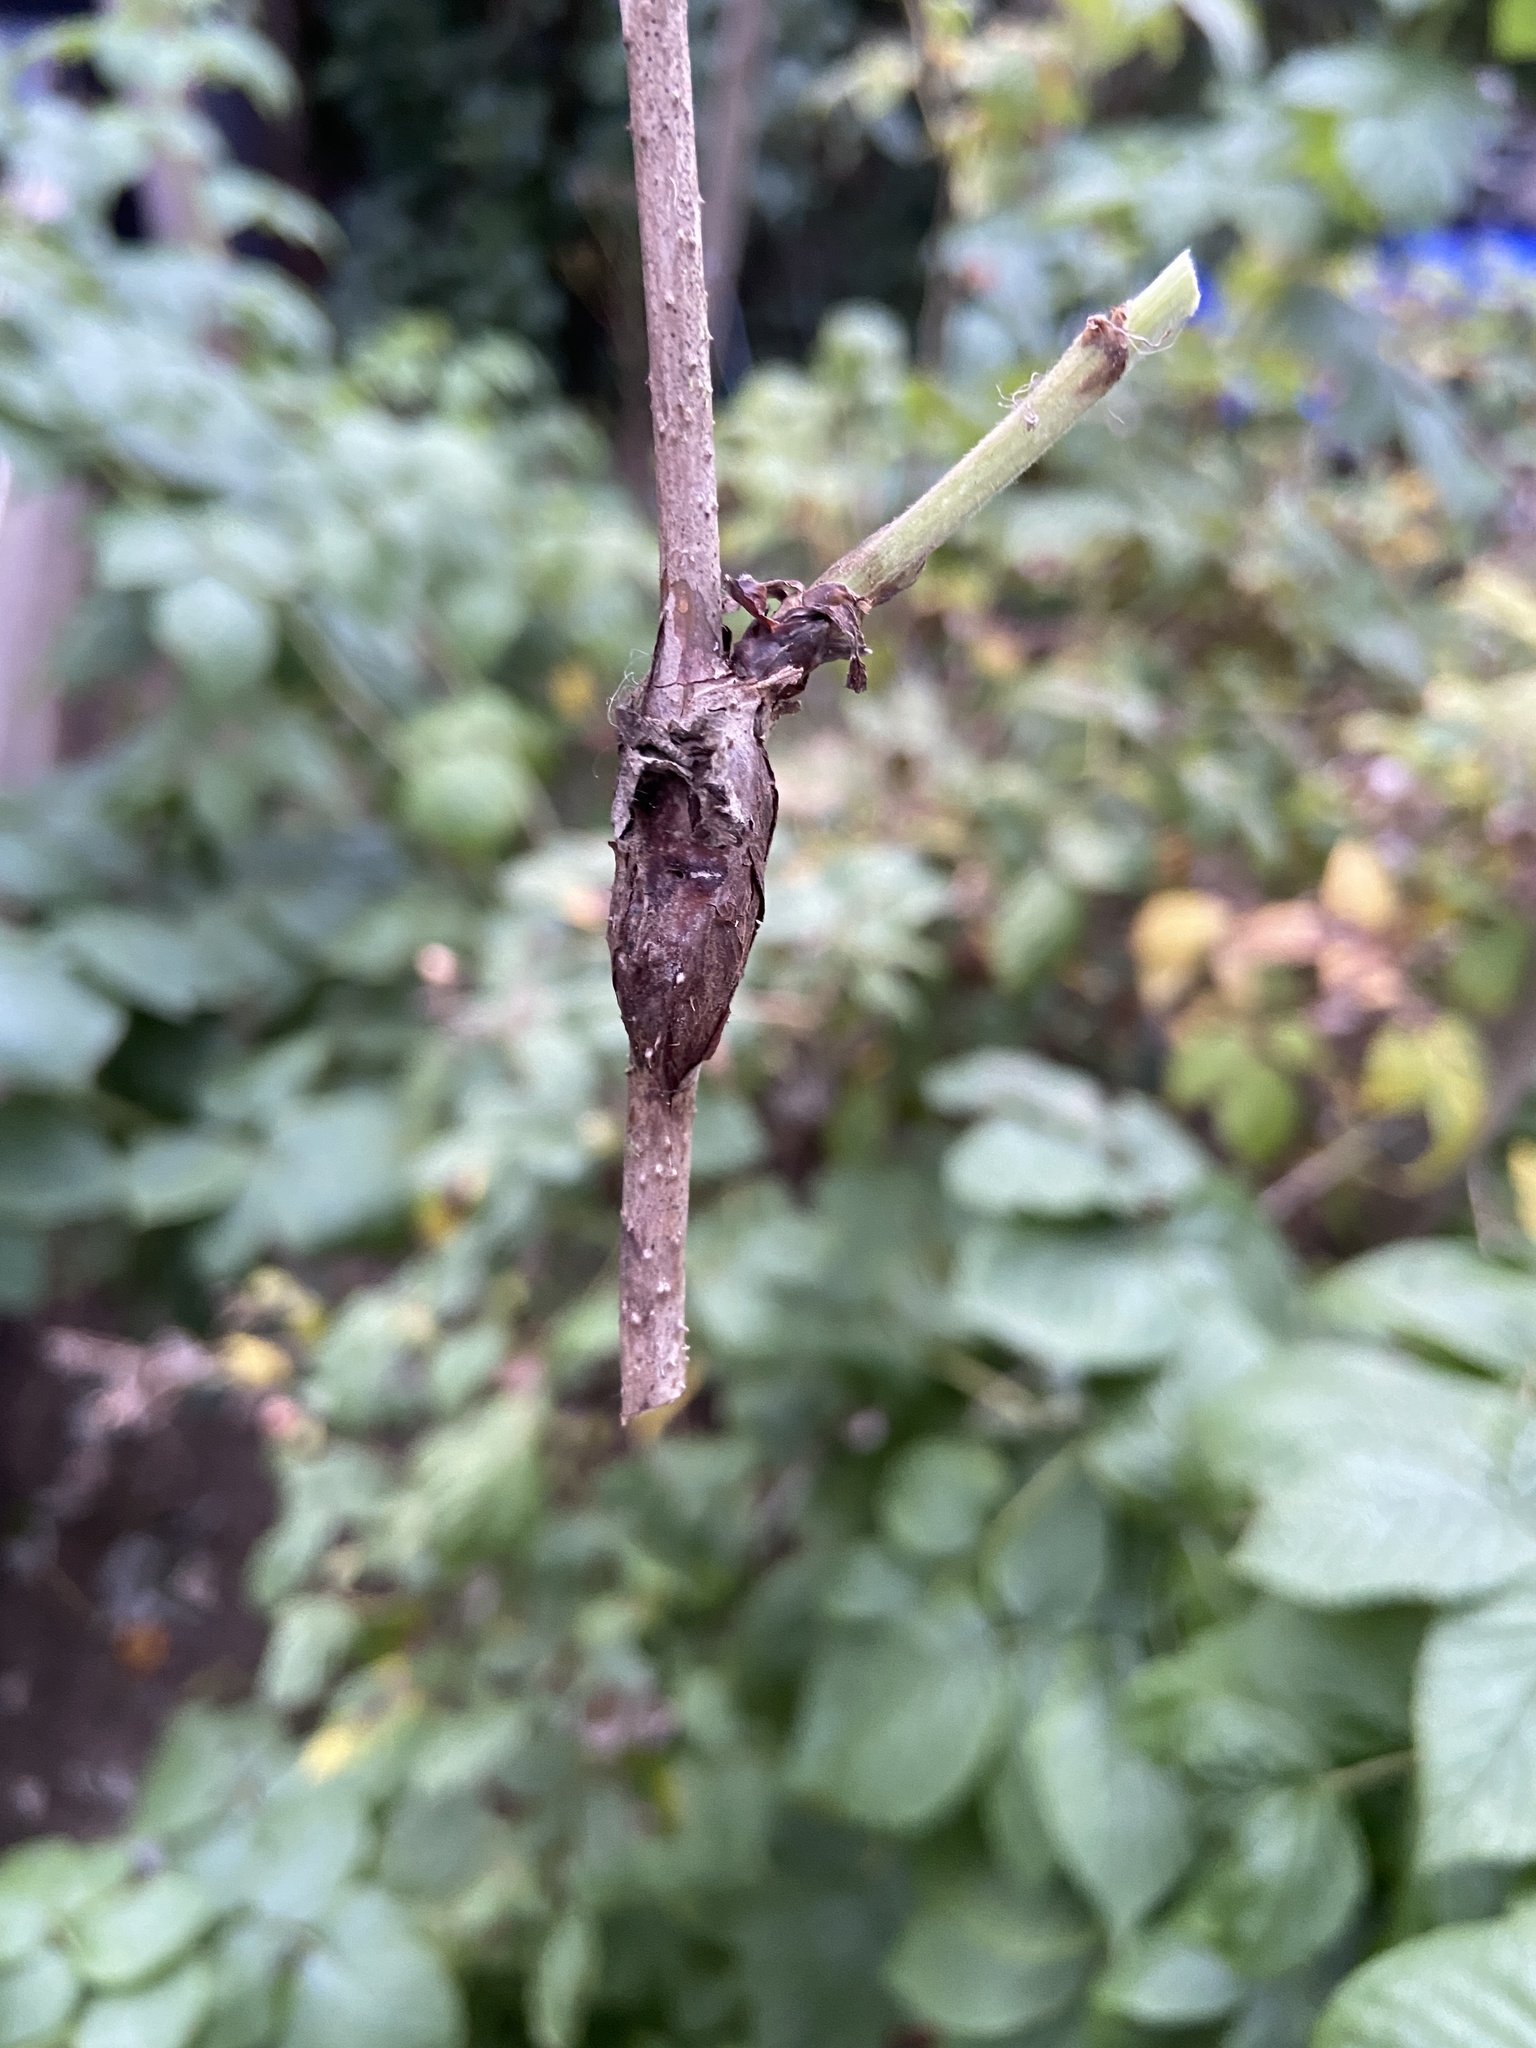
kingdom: Animalia
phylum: Arthropoda
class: Insecta
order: Diptera
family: Cecidomyiidae
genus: Lasioptera
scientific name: Lasioptera rubi
